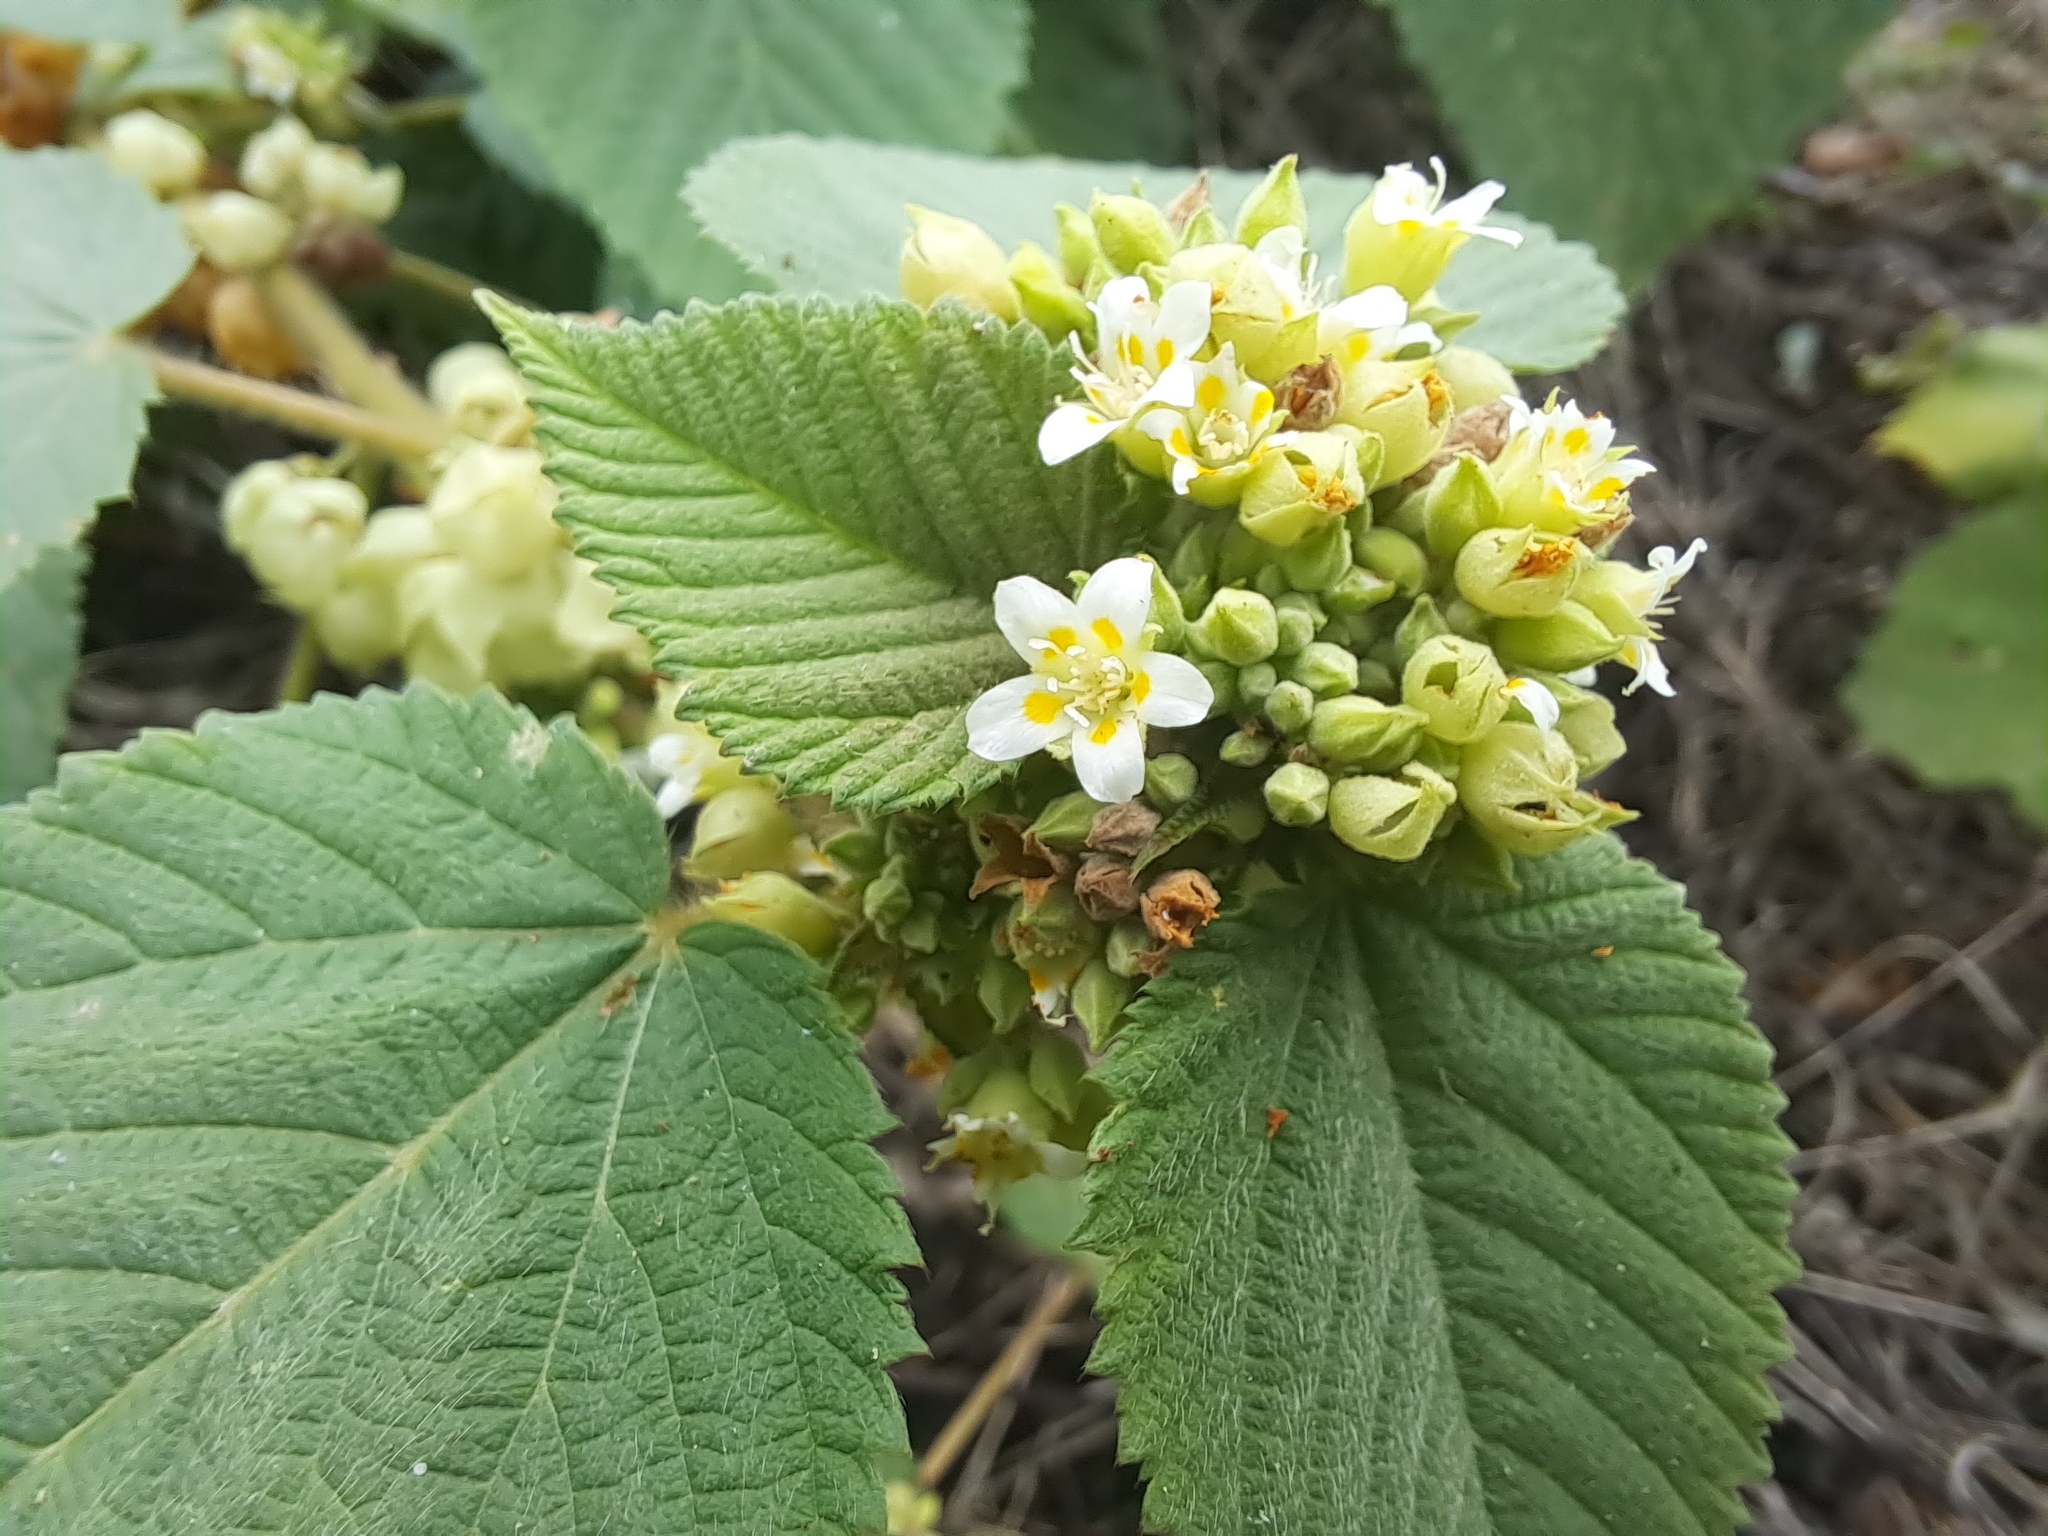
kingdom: Plantae
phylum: Tracheophyta
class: Magnoliopsida
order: Malvales
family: Malvaceae
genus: Melochia
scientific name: Melochia lupulina
